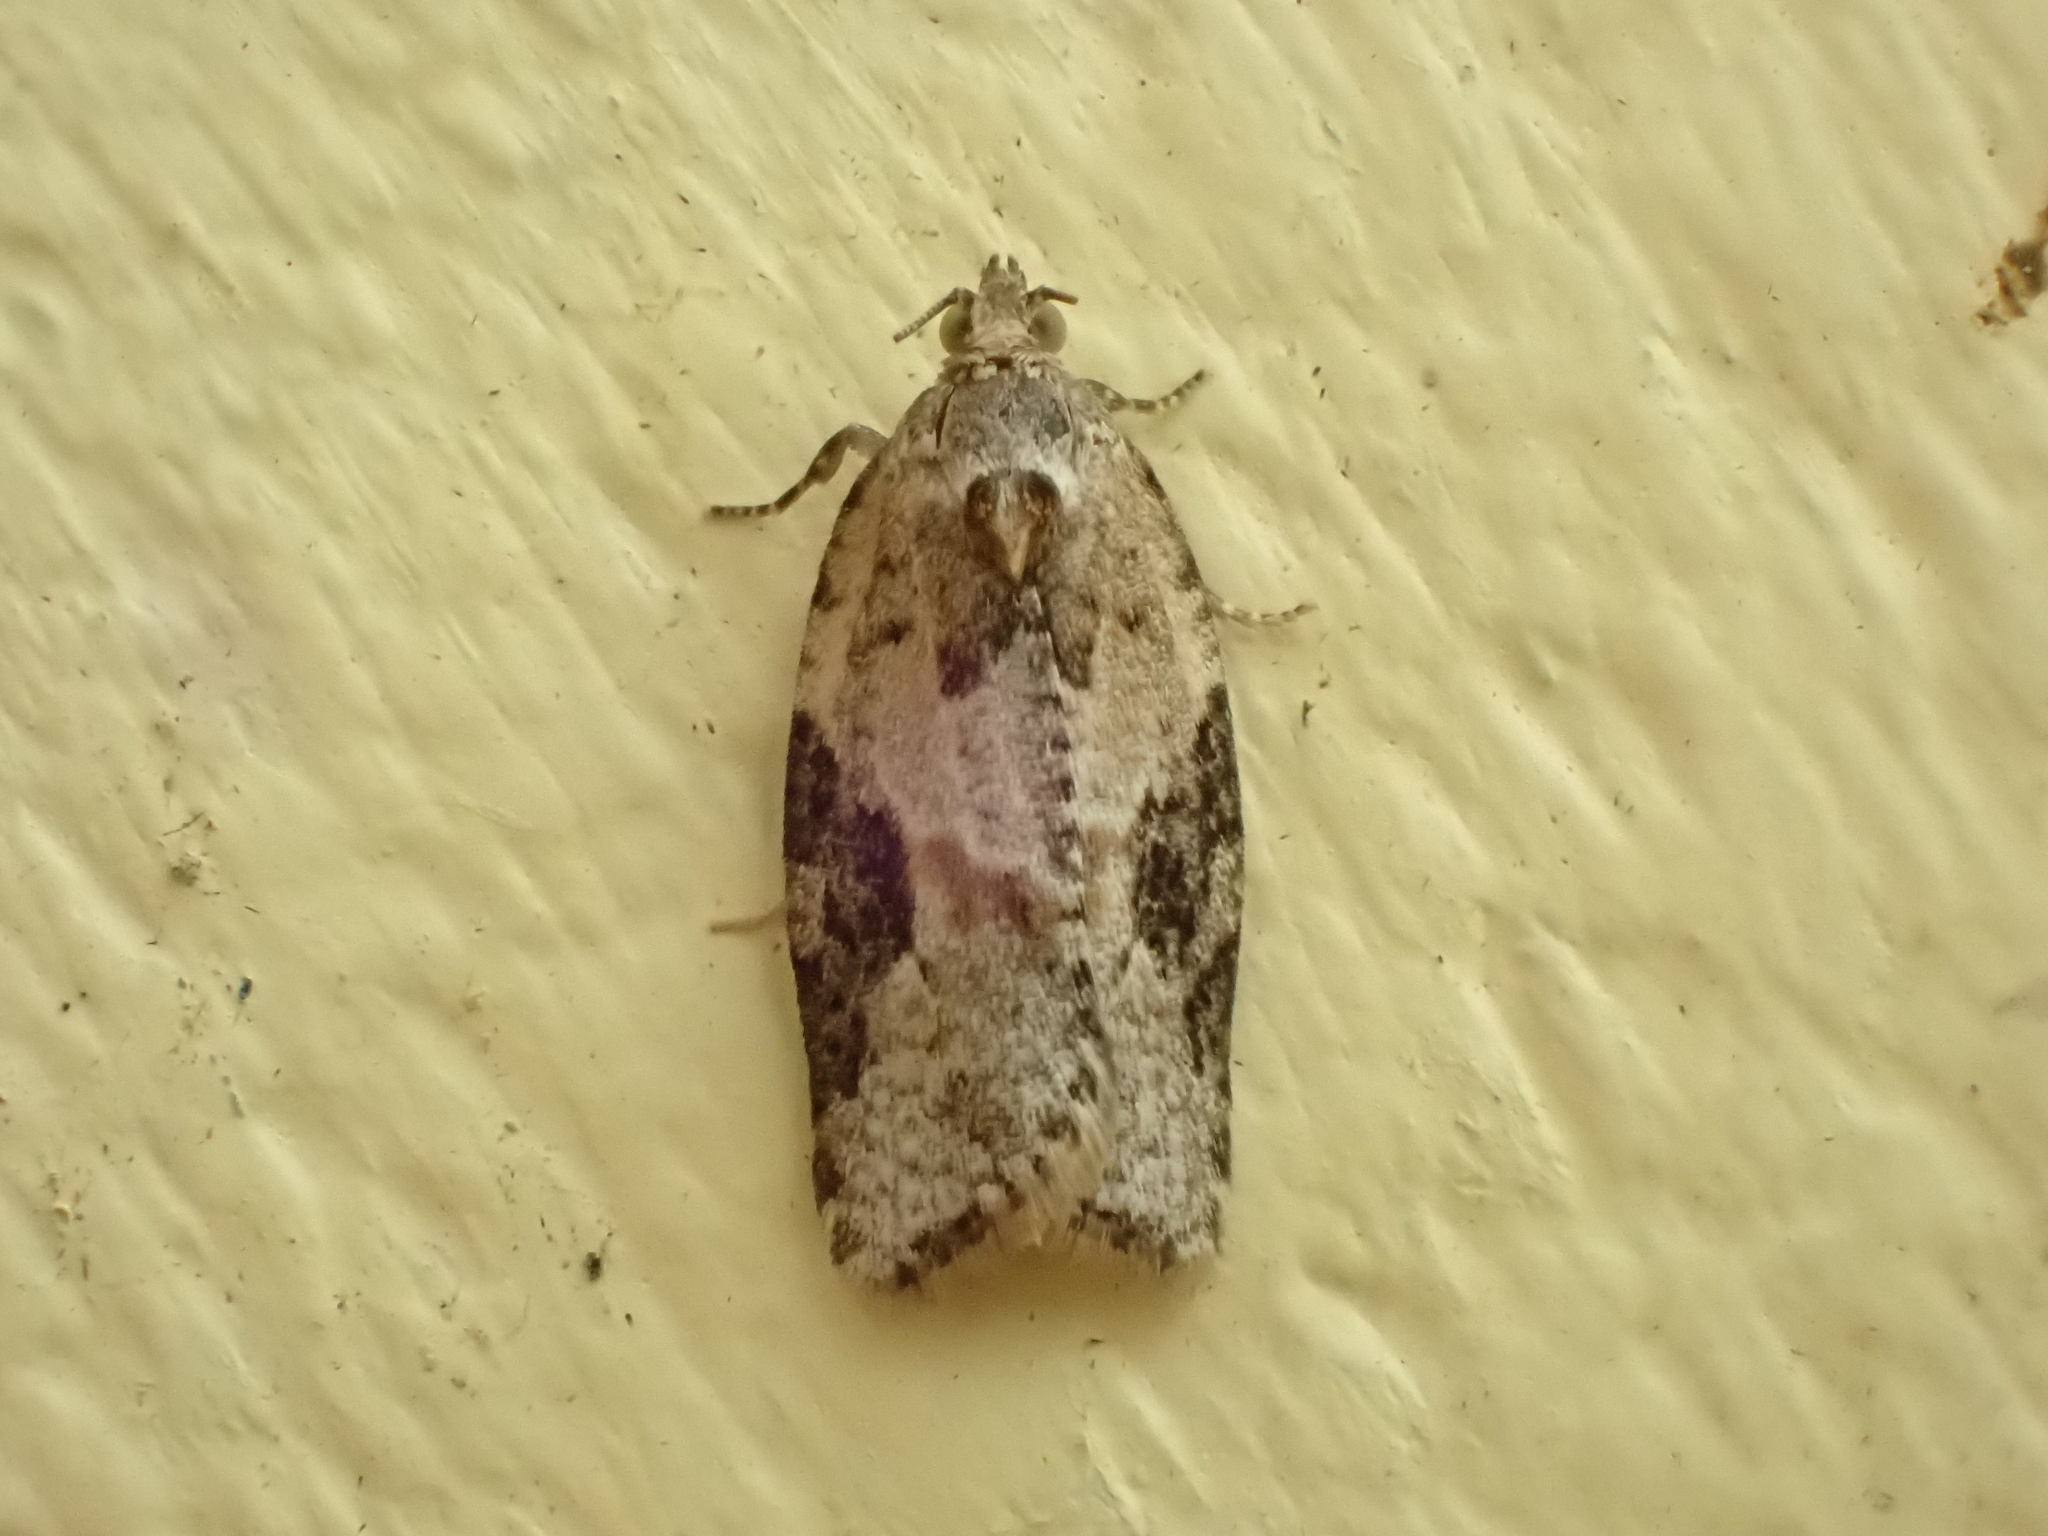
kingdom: Animalia
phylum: Arthropoda
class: Insecta
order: Lepidoptera
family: Tortricidae
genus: Argyrotaenia
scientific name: Argyrotaenia mariana
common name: Gray-banded leafroller moth
